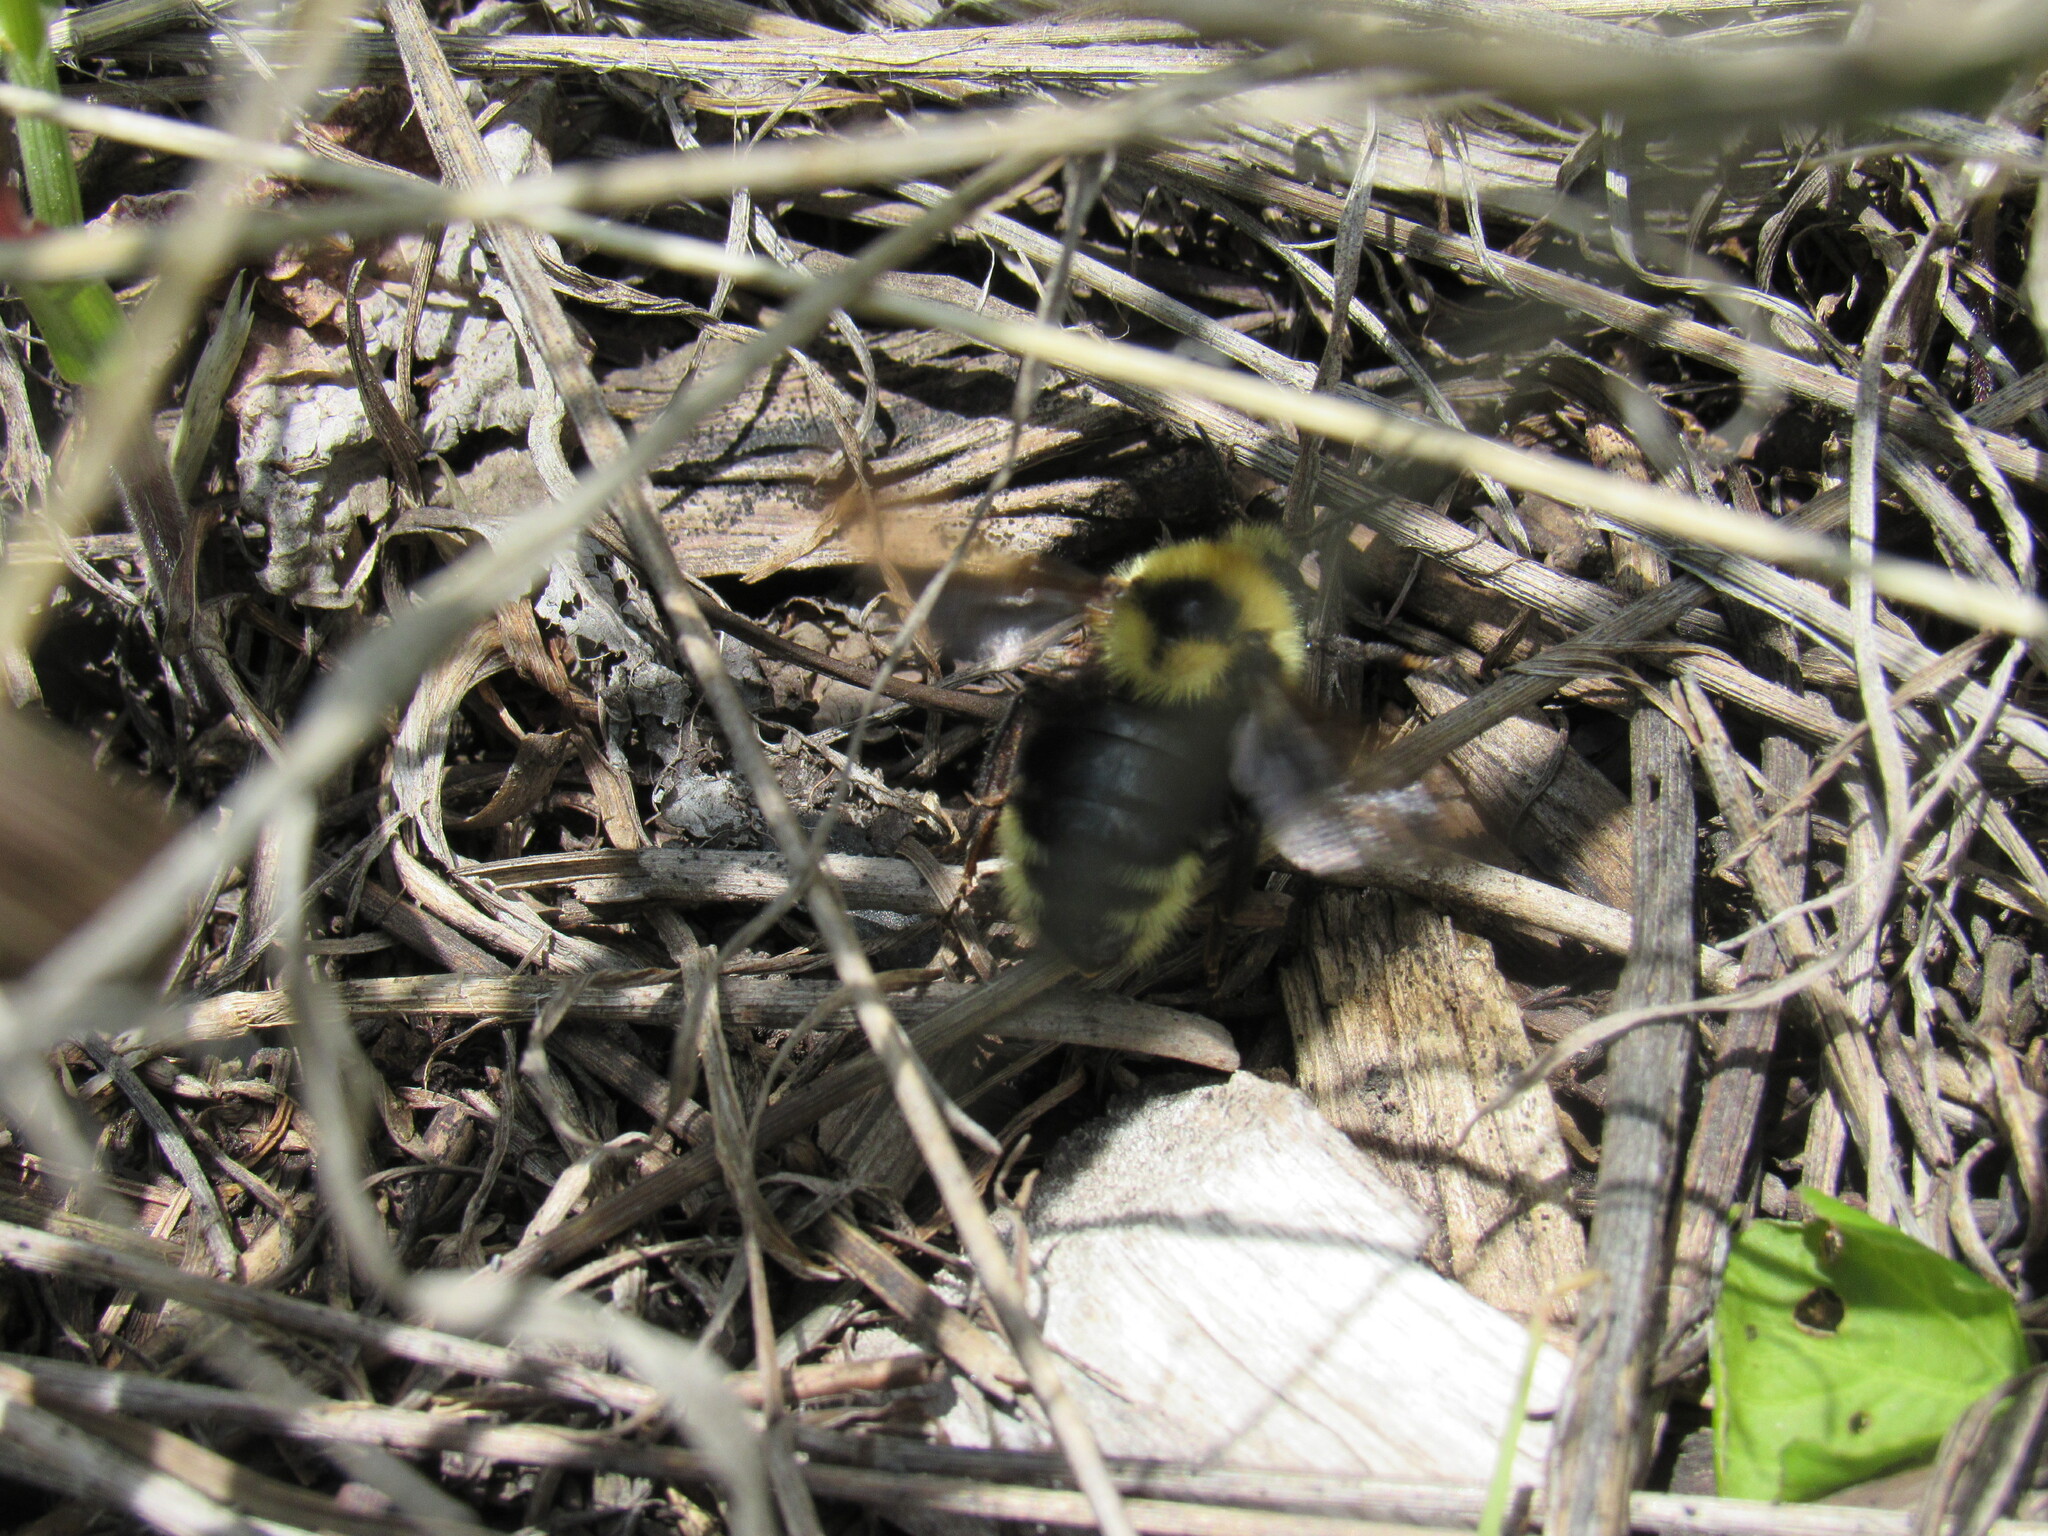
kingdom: Animalia
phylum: Arthropoda
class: Insecta
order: Hymenoptera
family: Apidae
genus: Bombus
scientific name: Bombus insularis
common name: Indiscriminate cuckoo bumble bee
